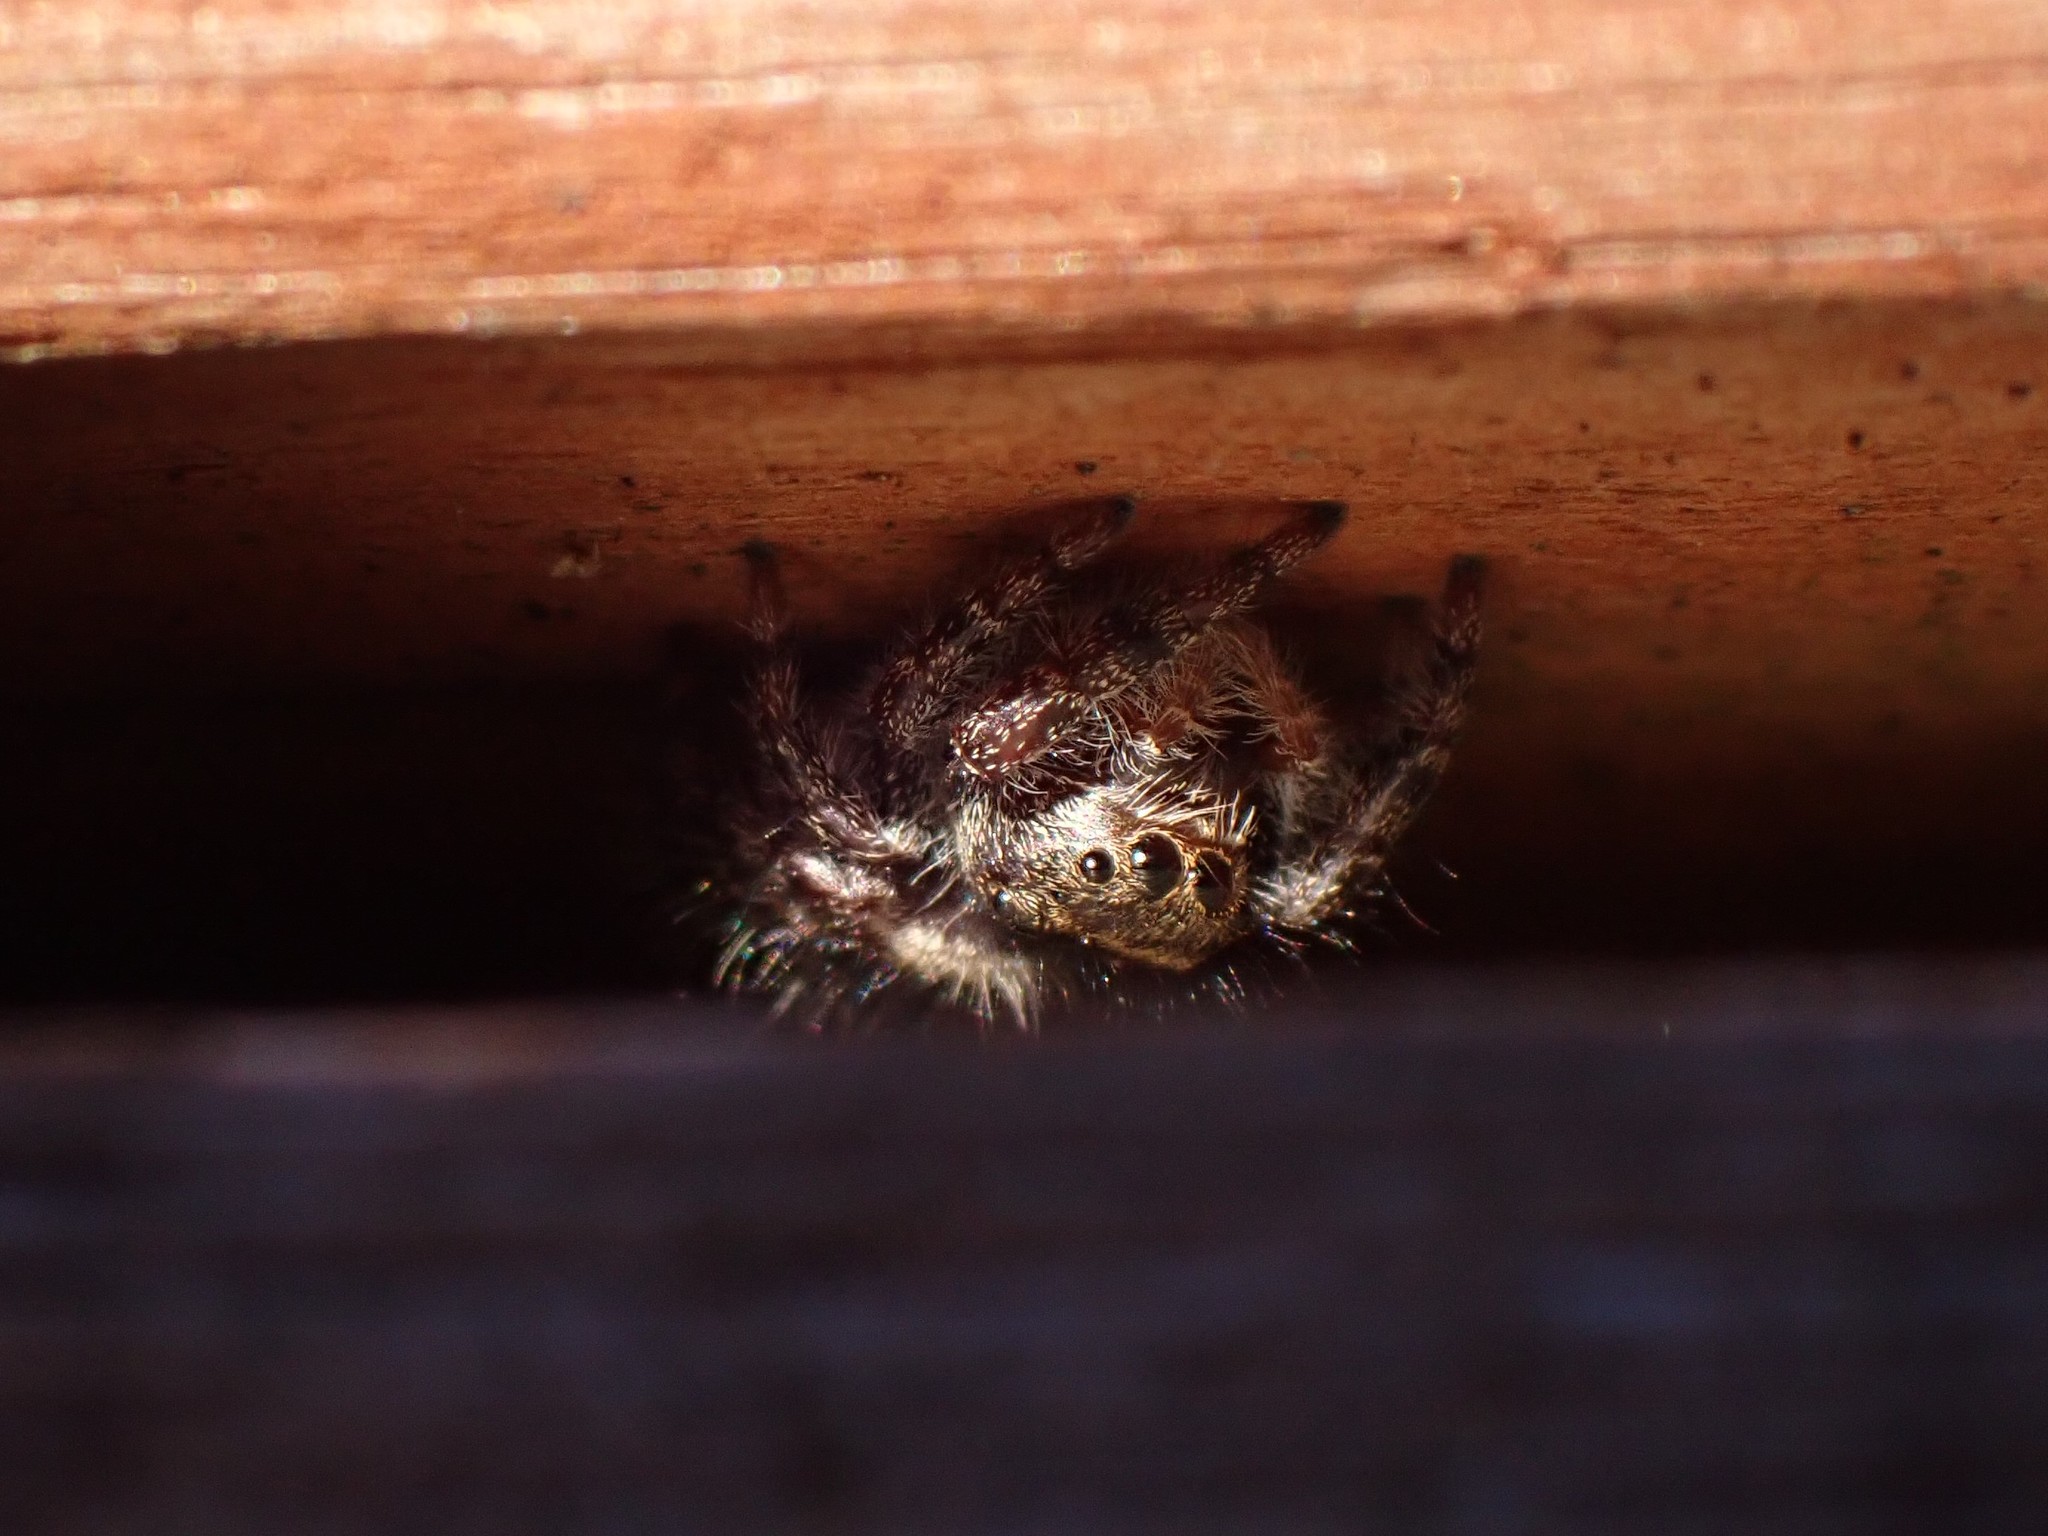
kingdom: Animalia
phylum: Arthropoda
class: Arachnida
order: Araneae
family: Salticidae
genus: Phidippus
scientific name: Phidippus audax
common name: Bold jumper
